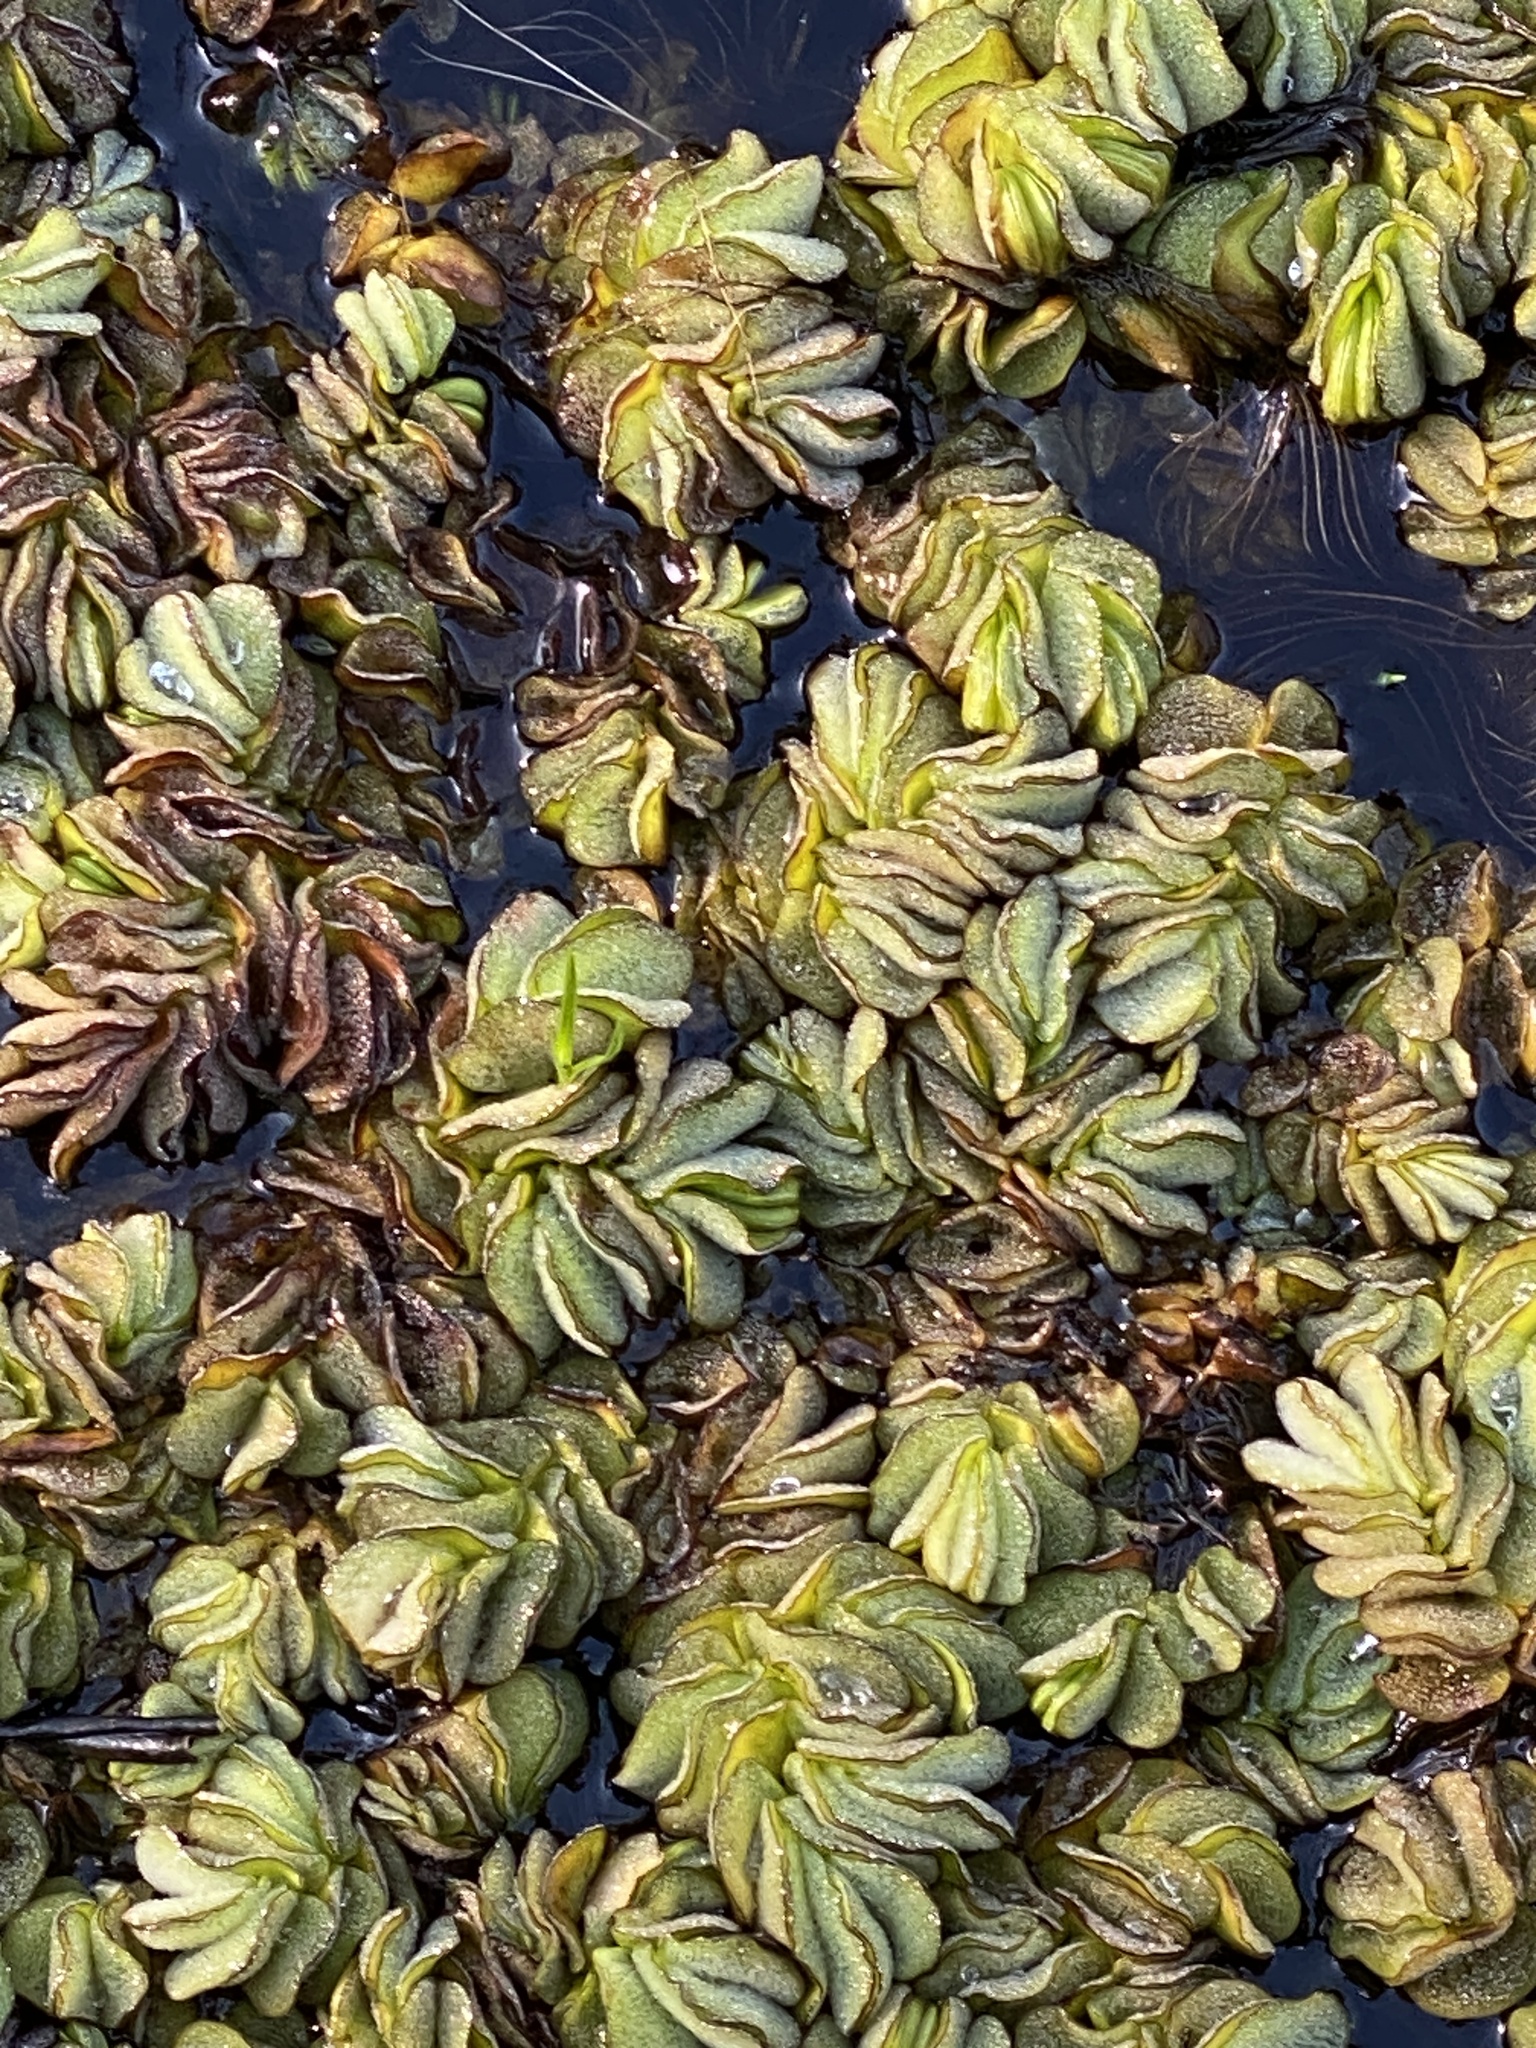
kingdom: Plantae
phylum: Tracheophyta
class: Polypodiopsida
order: Salviniales
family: Salviniaceae
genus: Salvinia
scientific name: Salvinia molesta
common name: Kariba weed
